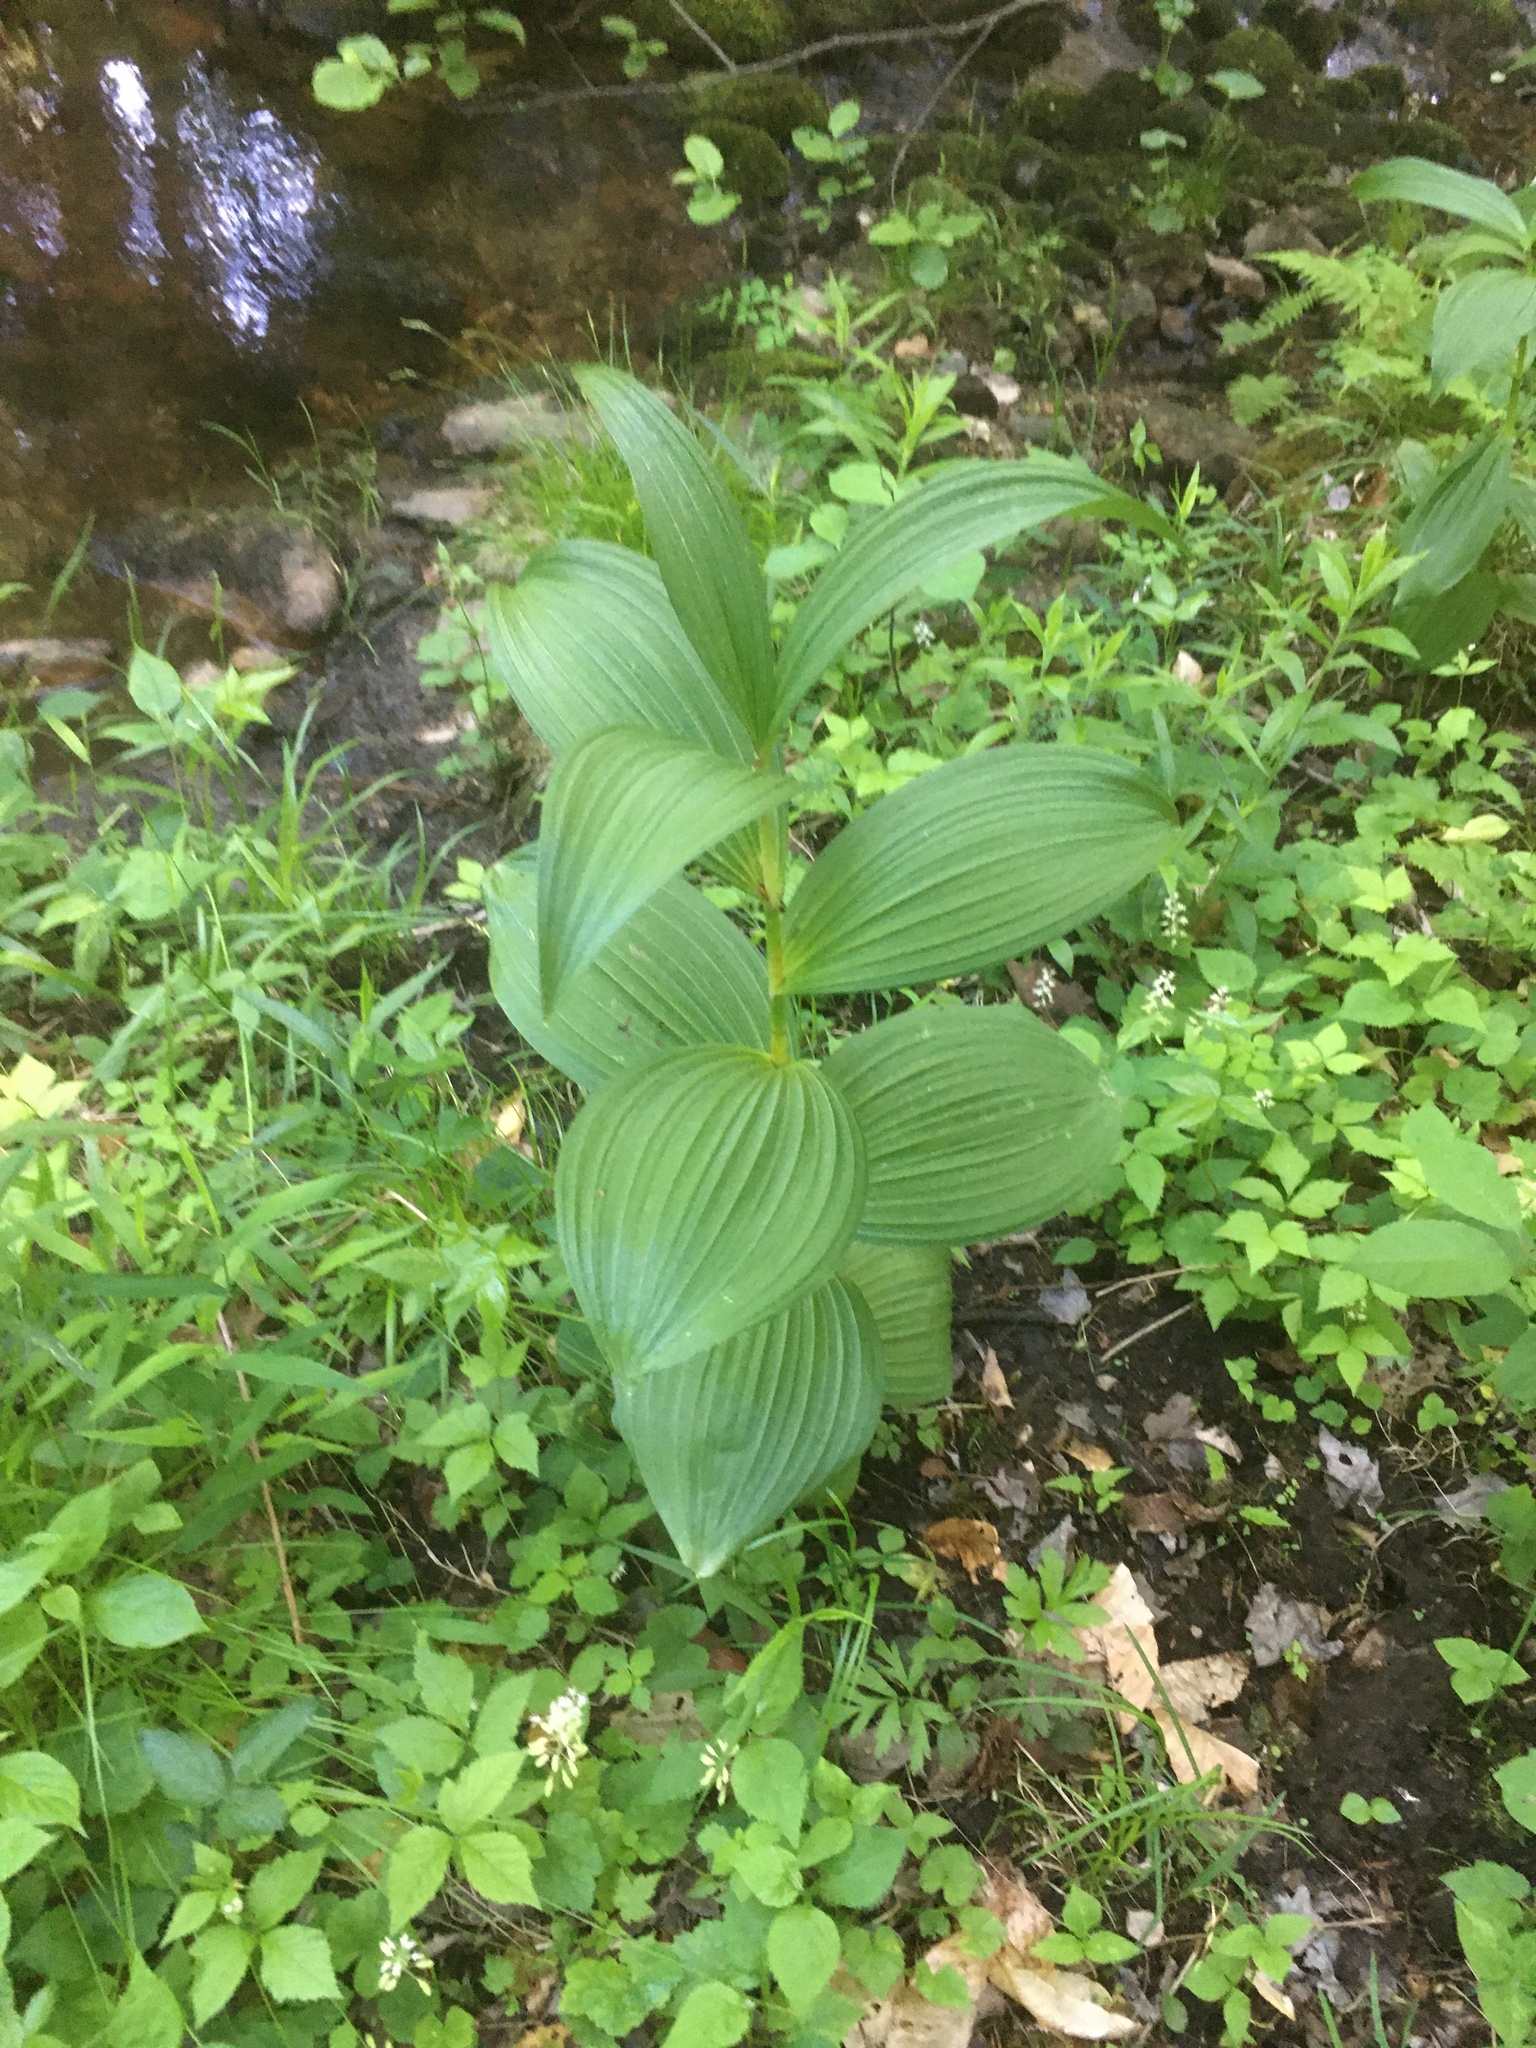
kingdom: Plantae
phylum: Tracheophyta
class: Liliopsida
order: Liliales
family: Melanthiaceae
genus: Veratrum
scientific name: Veratrum viride
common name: American false hellebore
